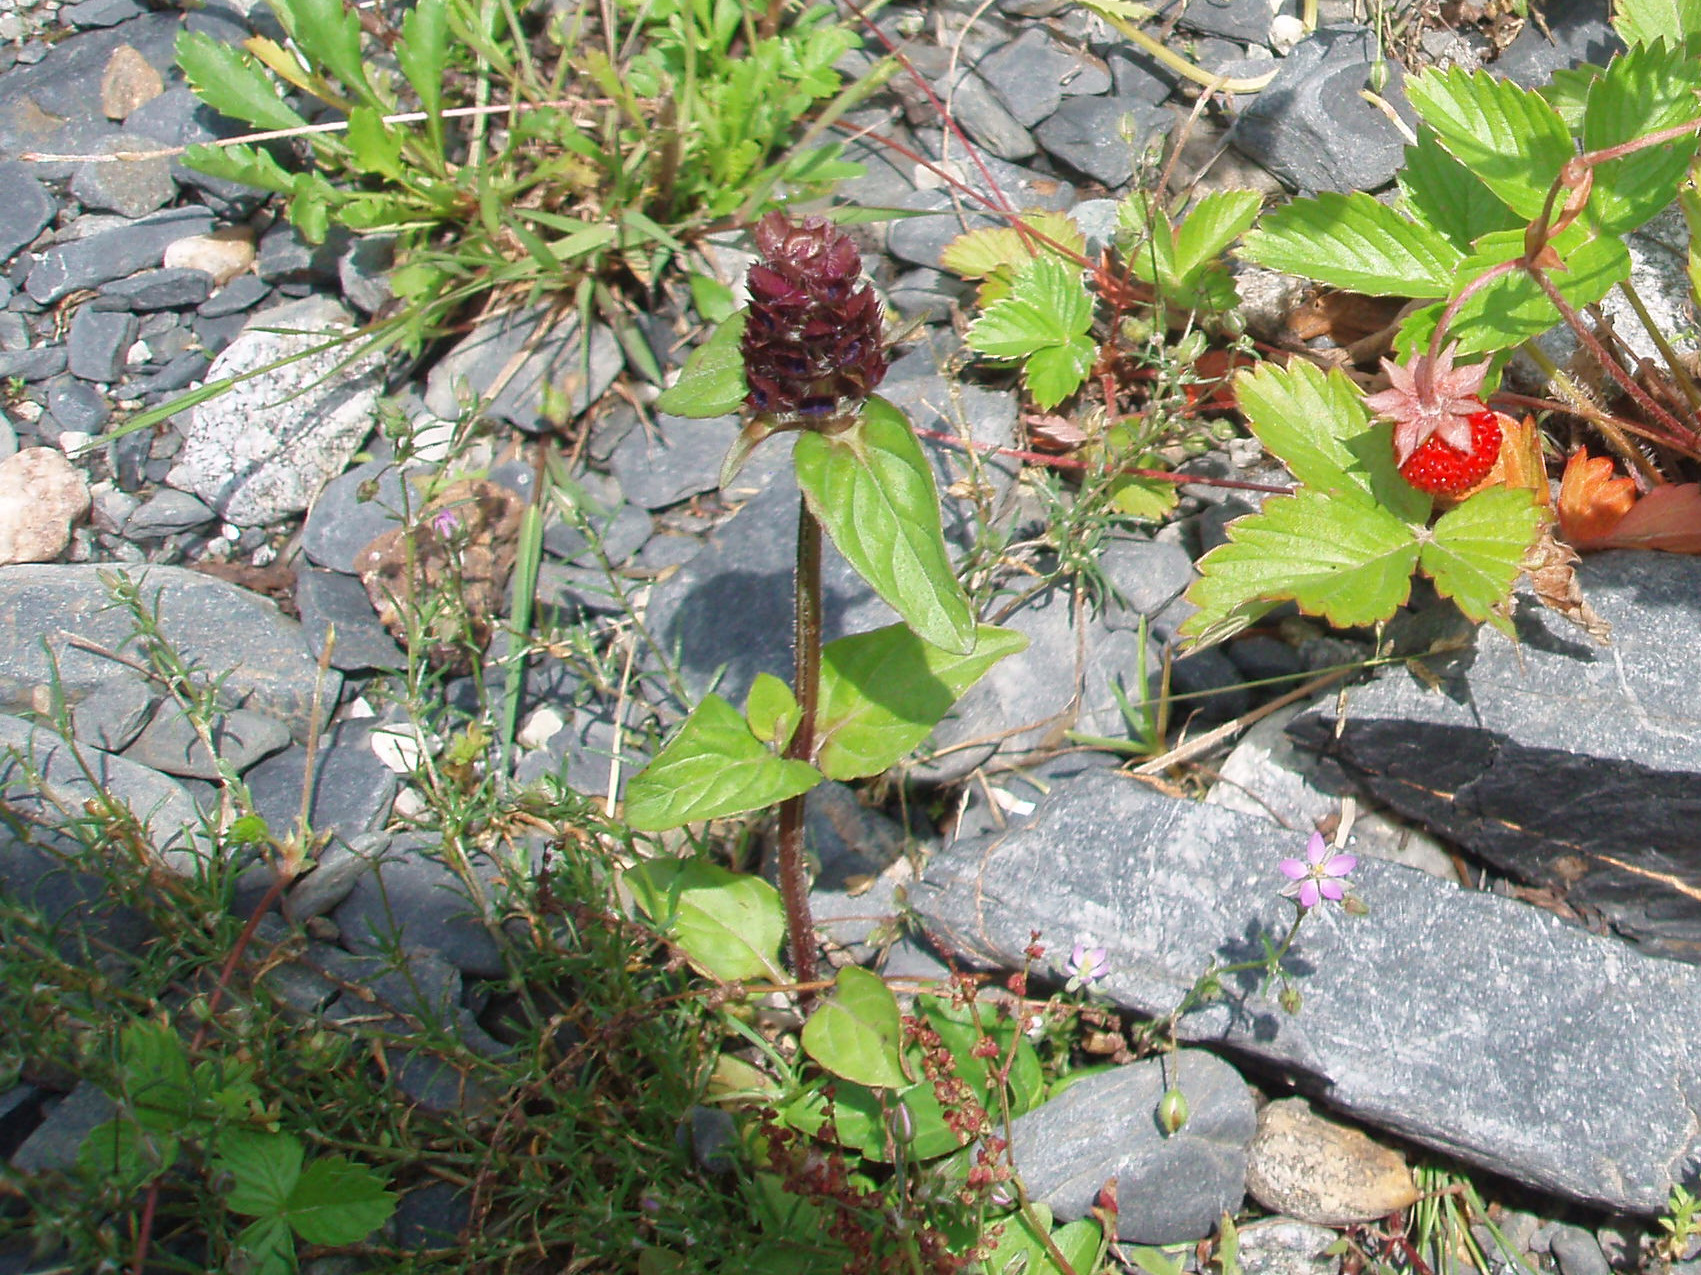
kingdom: Plantae
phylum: Tracheophyta
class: Magnoliopsida
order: Lamiales
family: Lamiaceae
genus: Prunella
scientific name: Prunella vulgaris
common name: Heal-all
